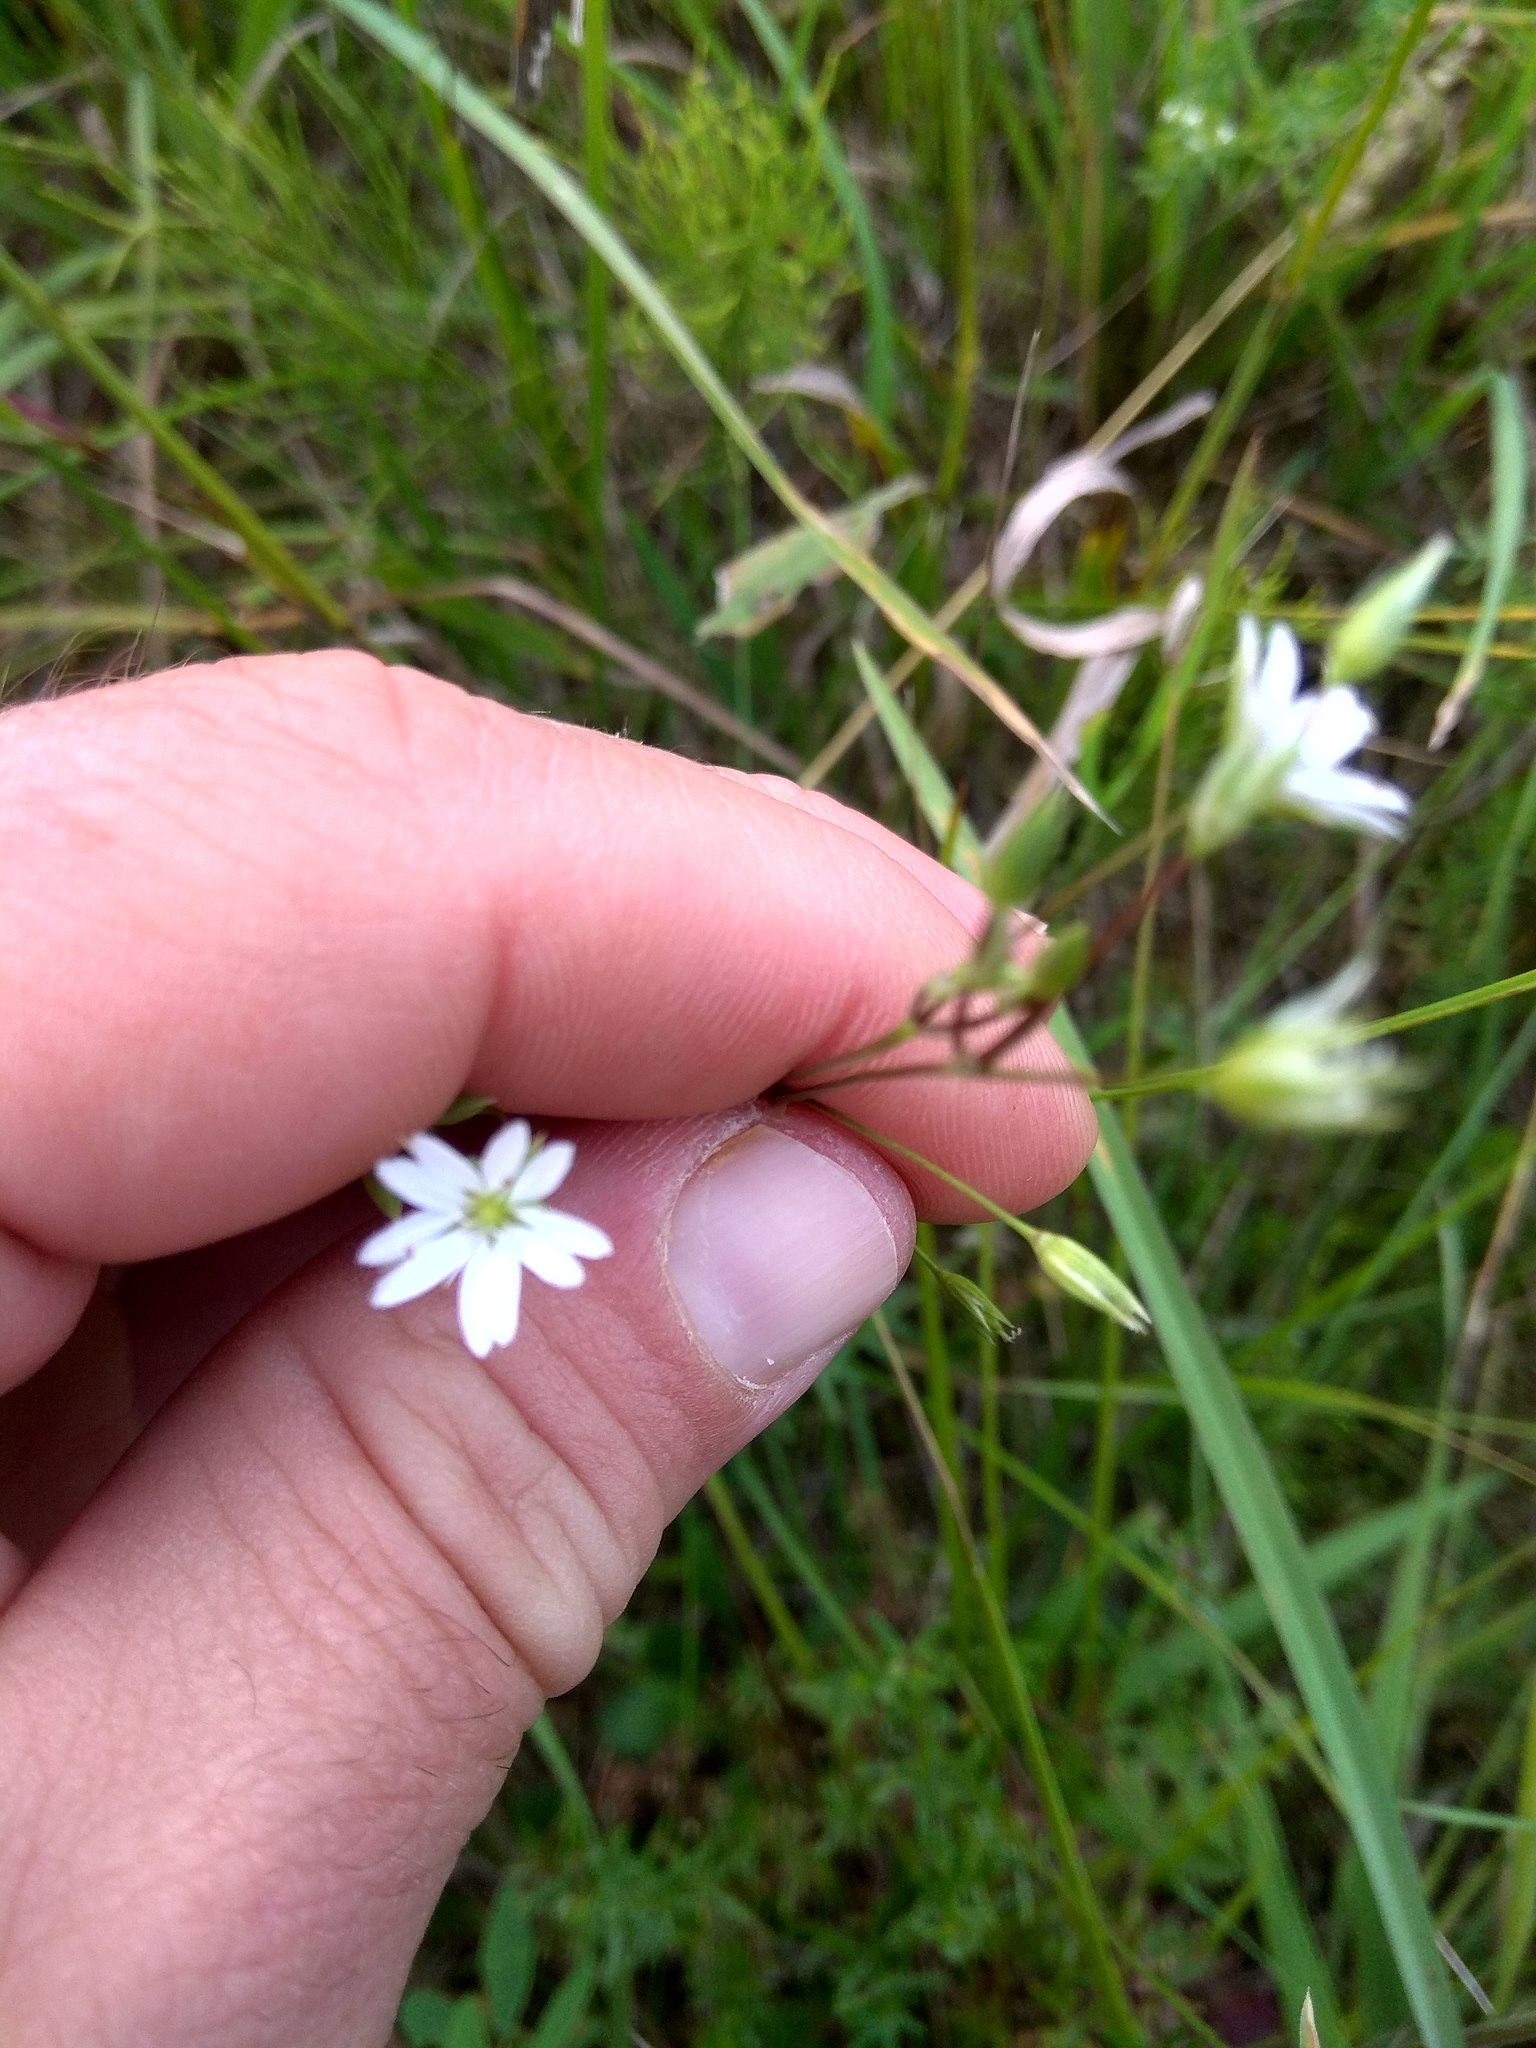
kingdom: Plantae
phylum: Tracheophyta
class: Magnoliopsida
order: Caryophyllales
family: Caryophyllaceae
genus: Stellaria
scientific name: Stellaria palustris
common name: Marsh stitchwort
